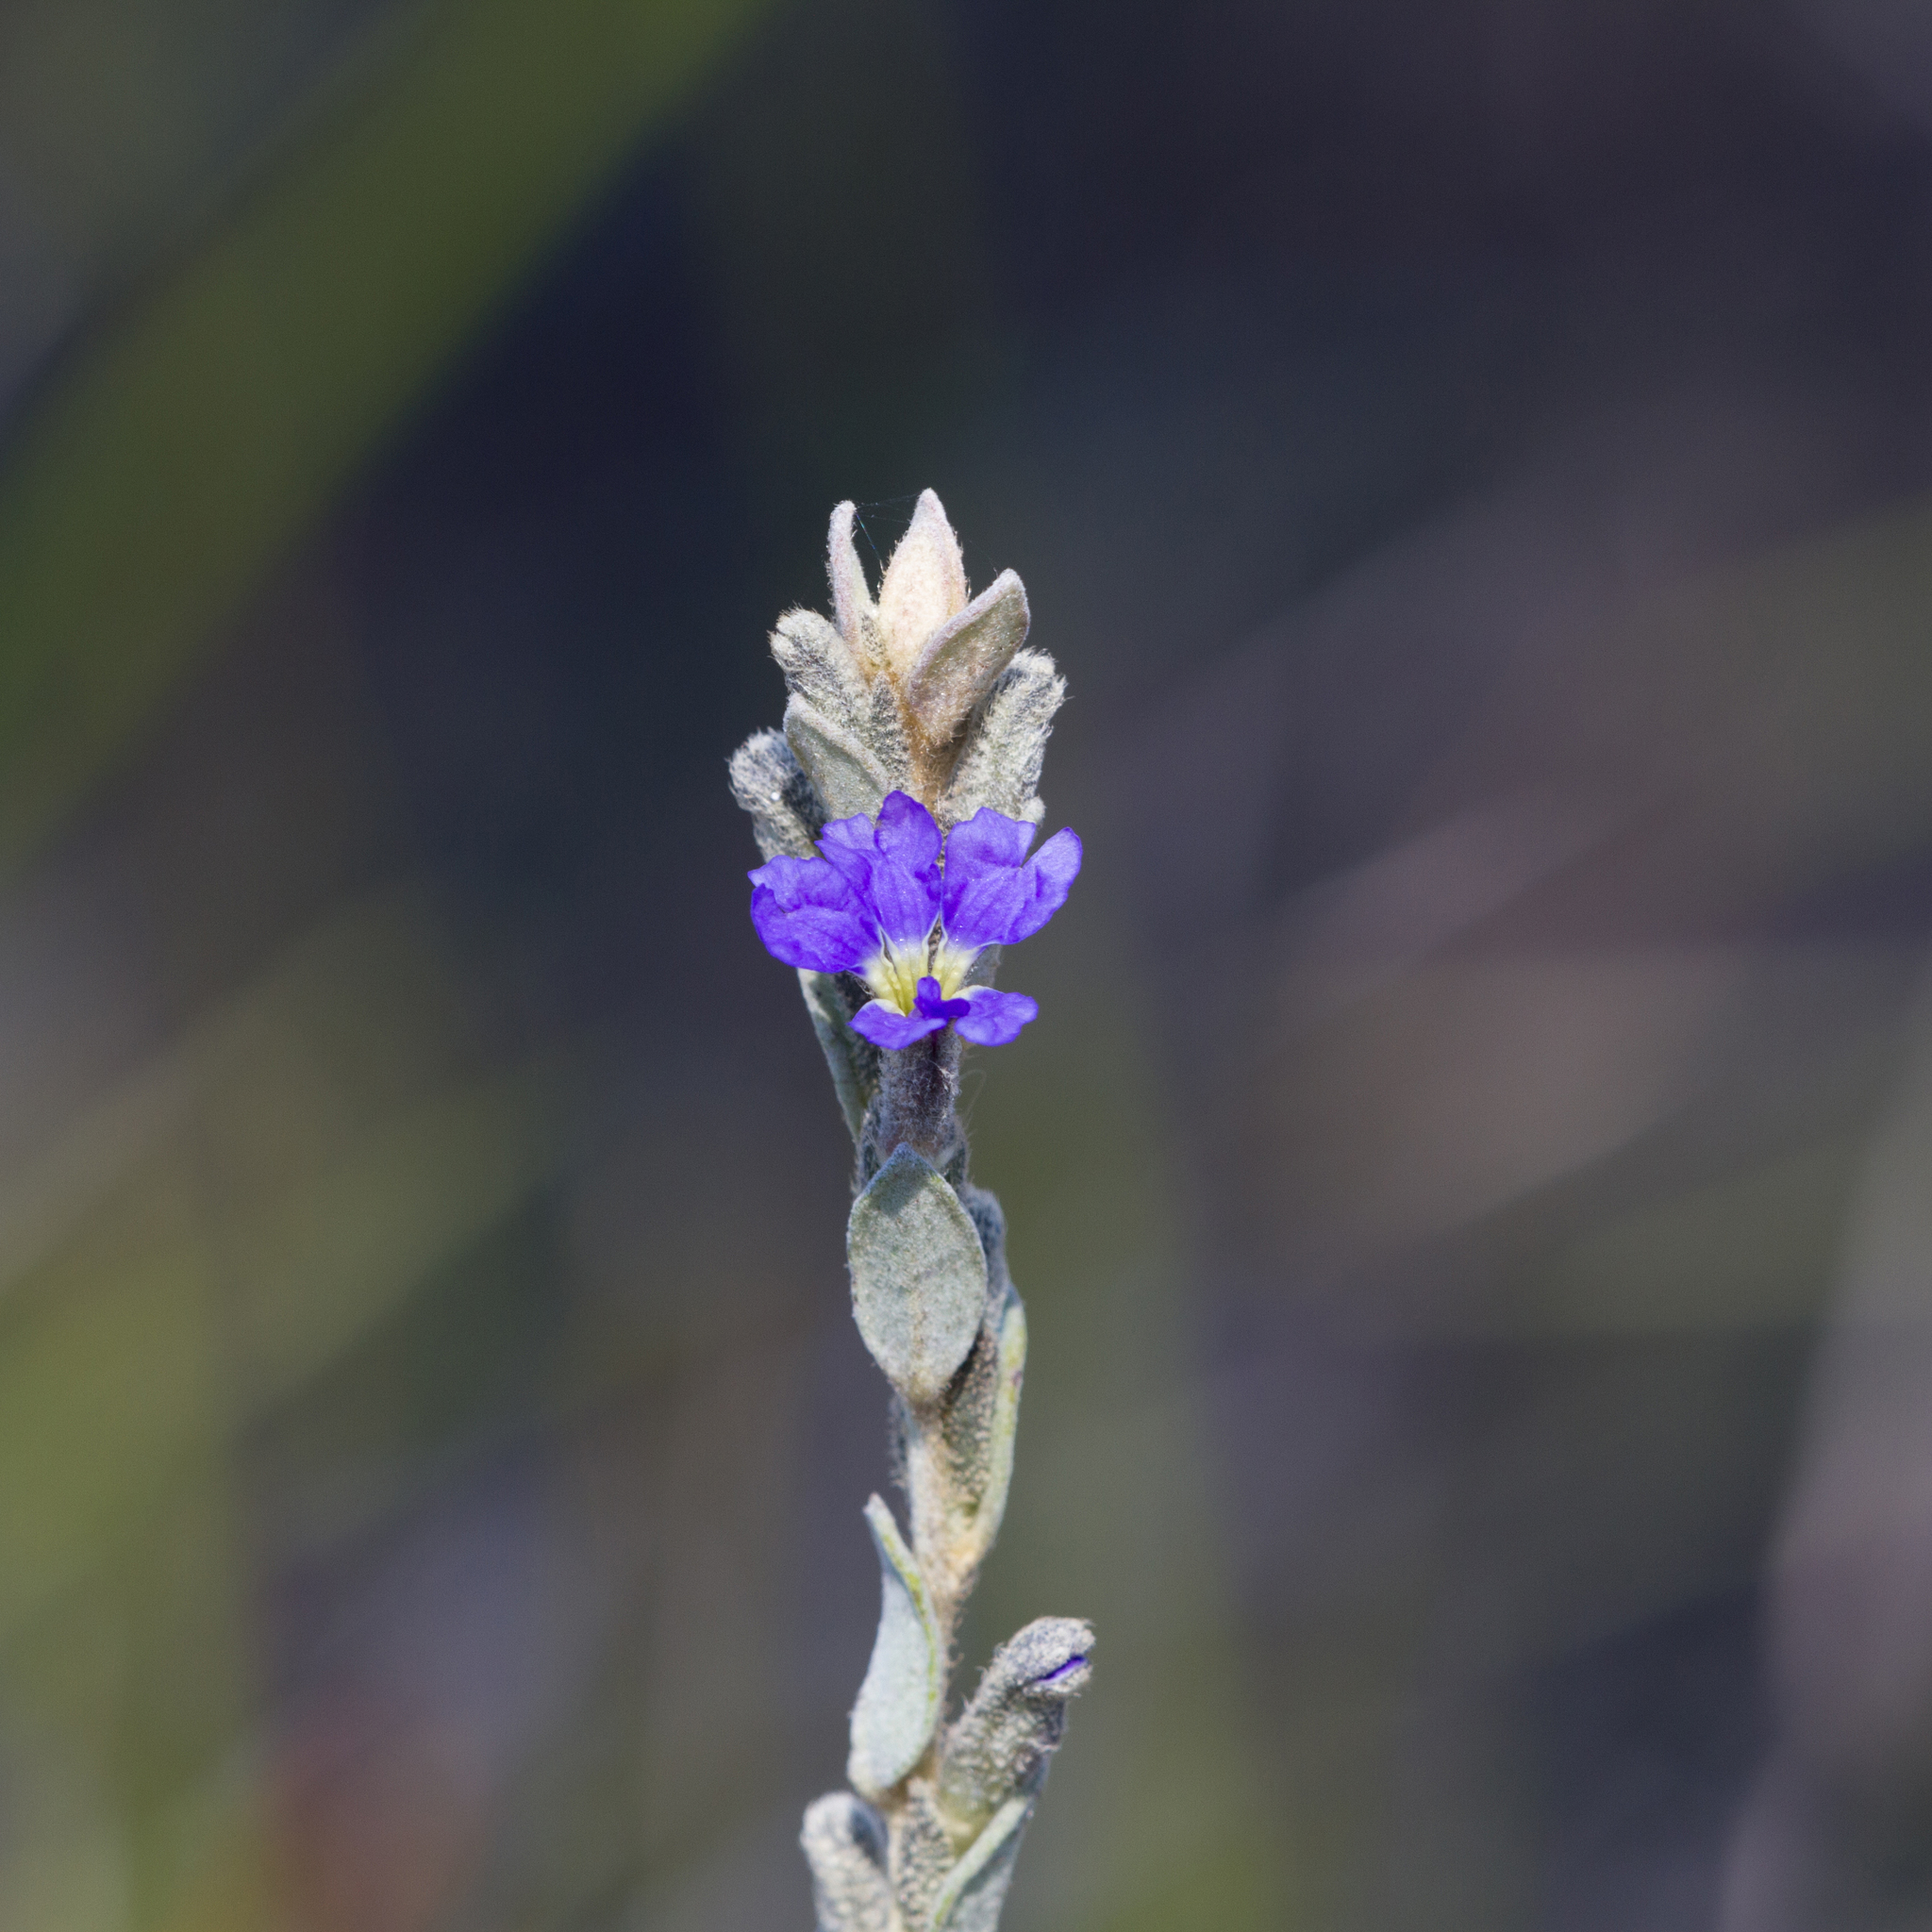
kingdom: Plantae
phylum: Tracheophyta
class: Magnoliopsida
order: Asterales
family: Goodeniaceae
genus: Dampiera
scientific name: Dampiera marifolia
